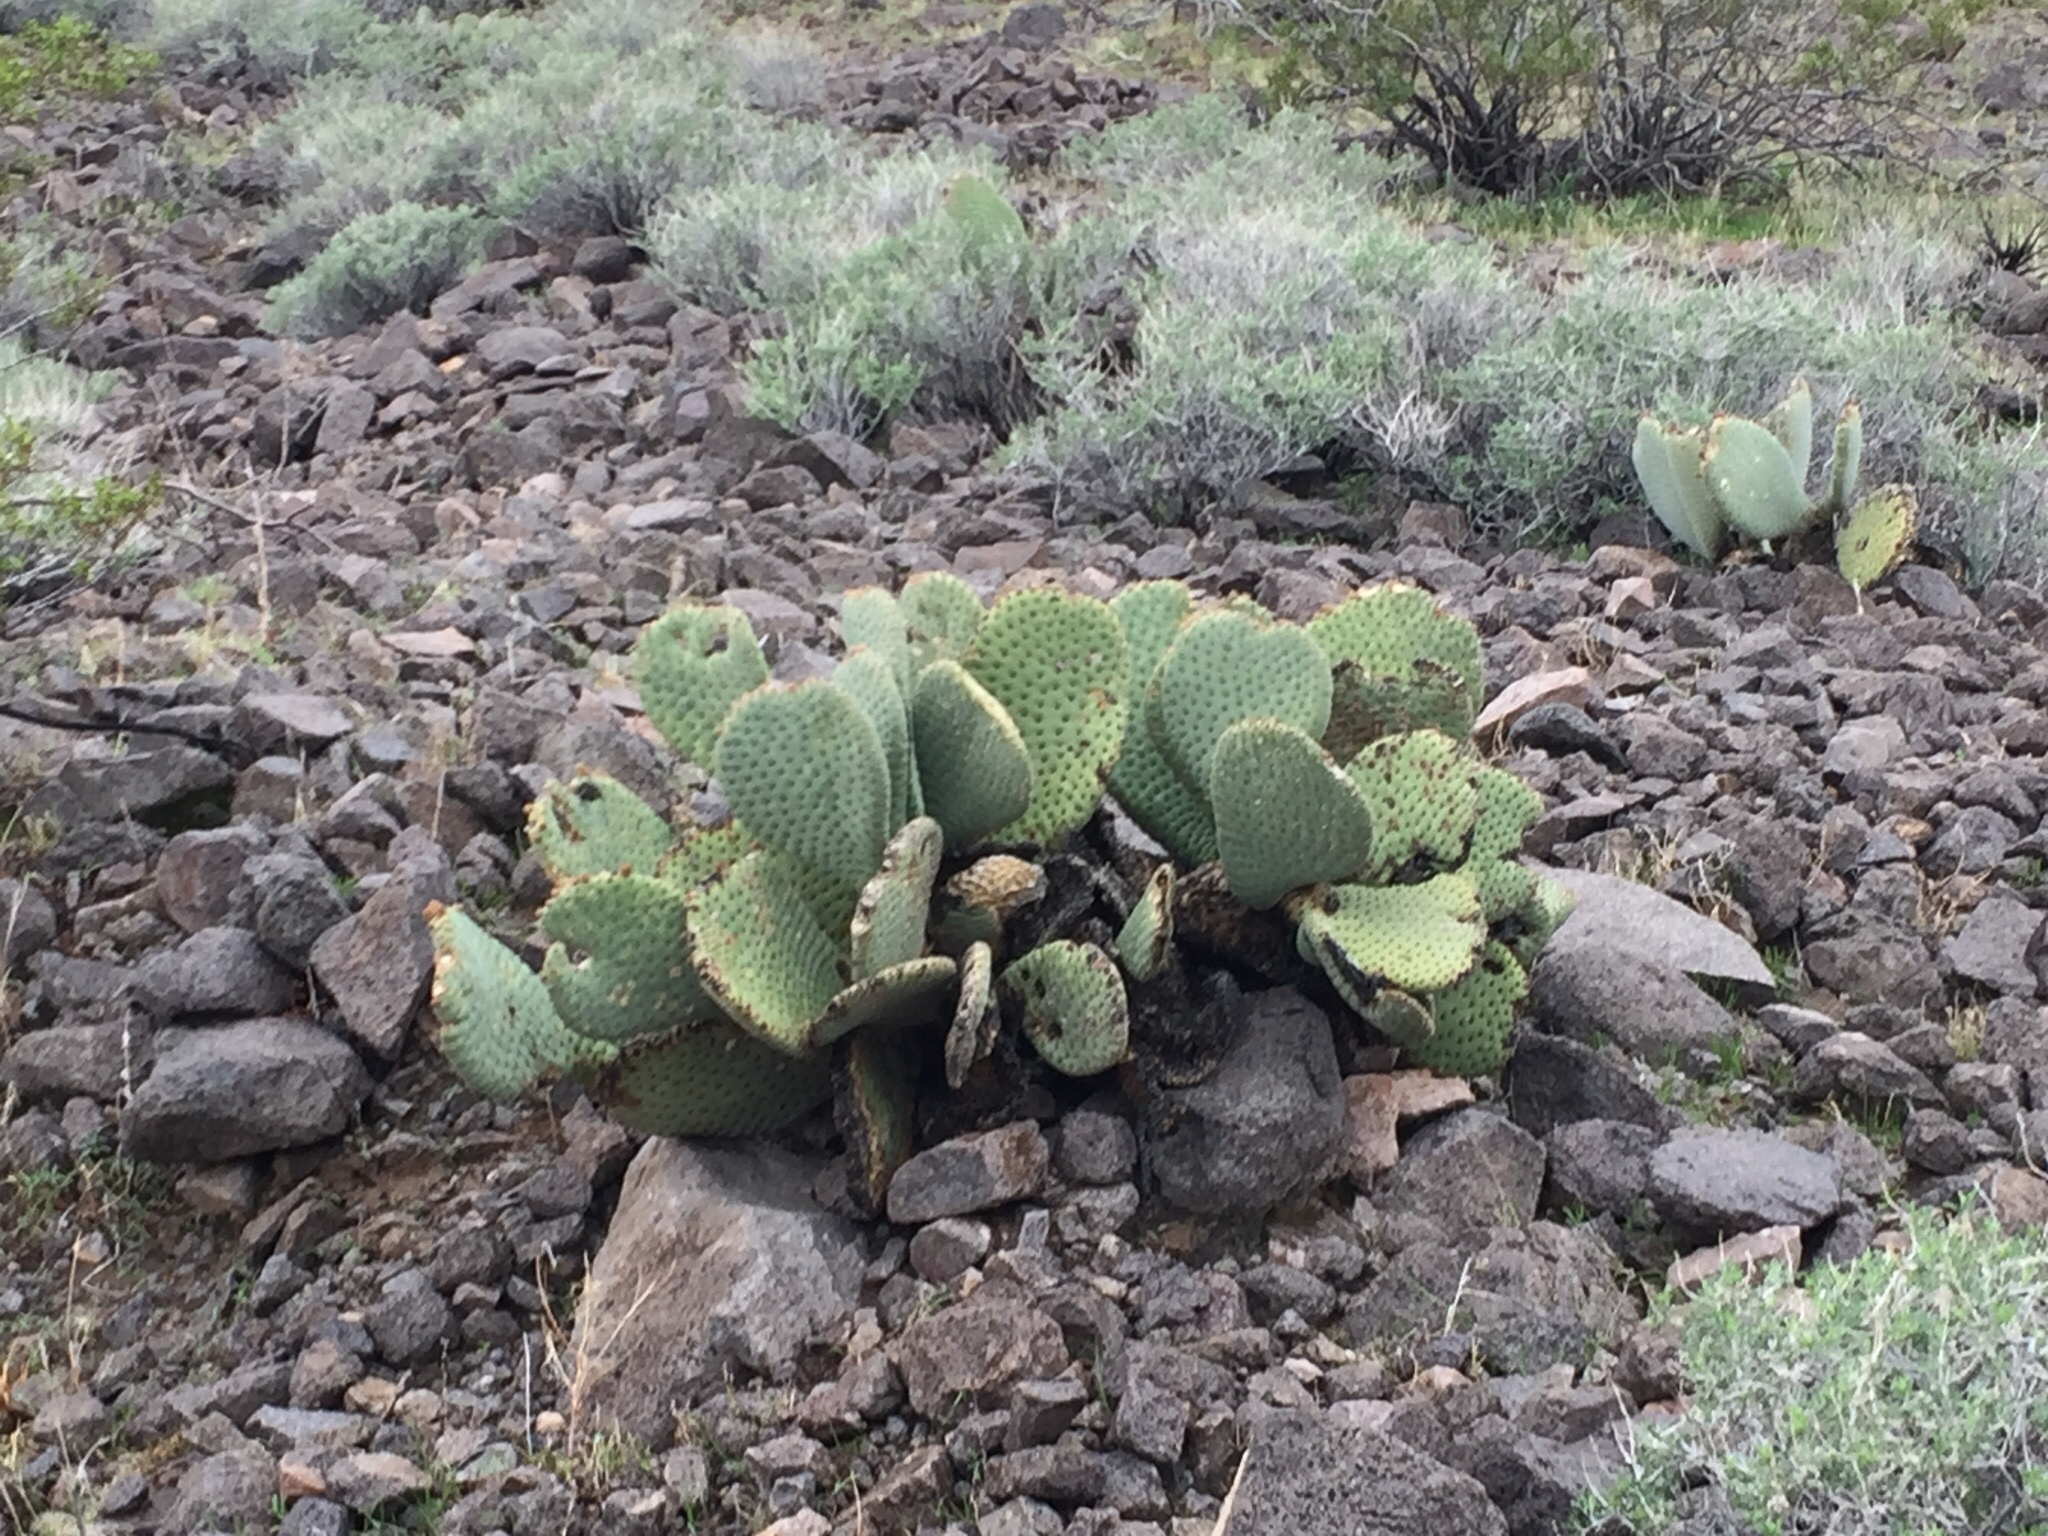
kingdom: Plantae
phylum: Tracheophyta
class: Magnoliopsida
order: Caryophyllales
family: Cactaceae
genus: Opuntia
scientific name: Opuntia basilaris
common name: Beavertail prickly-pear
